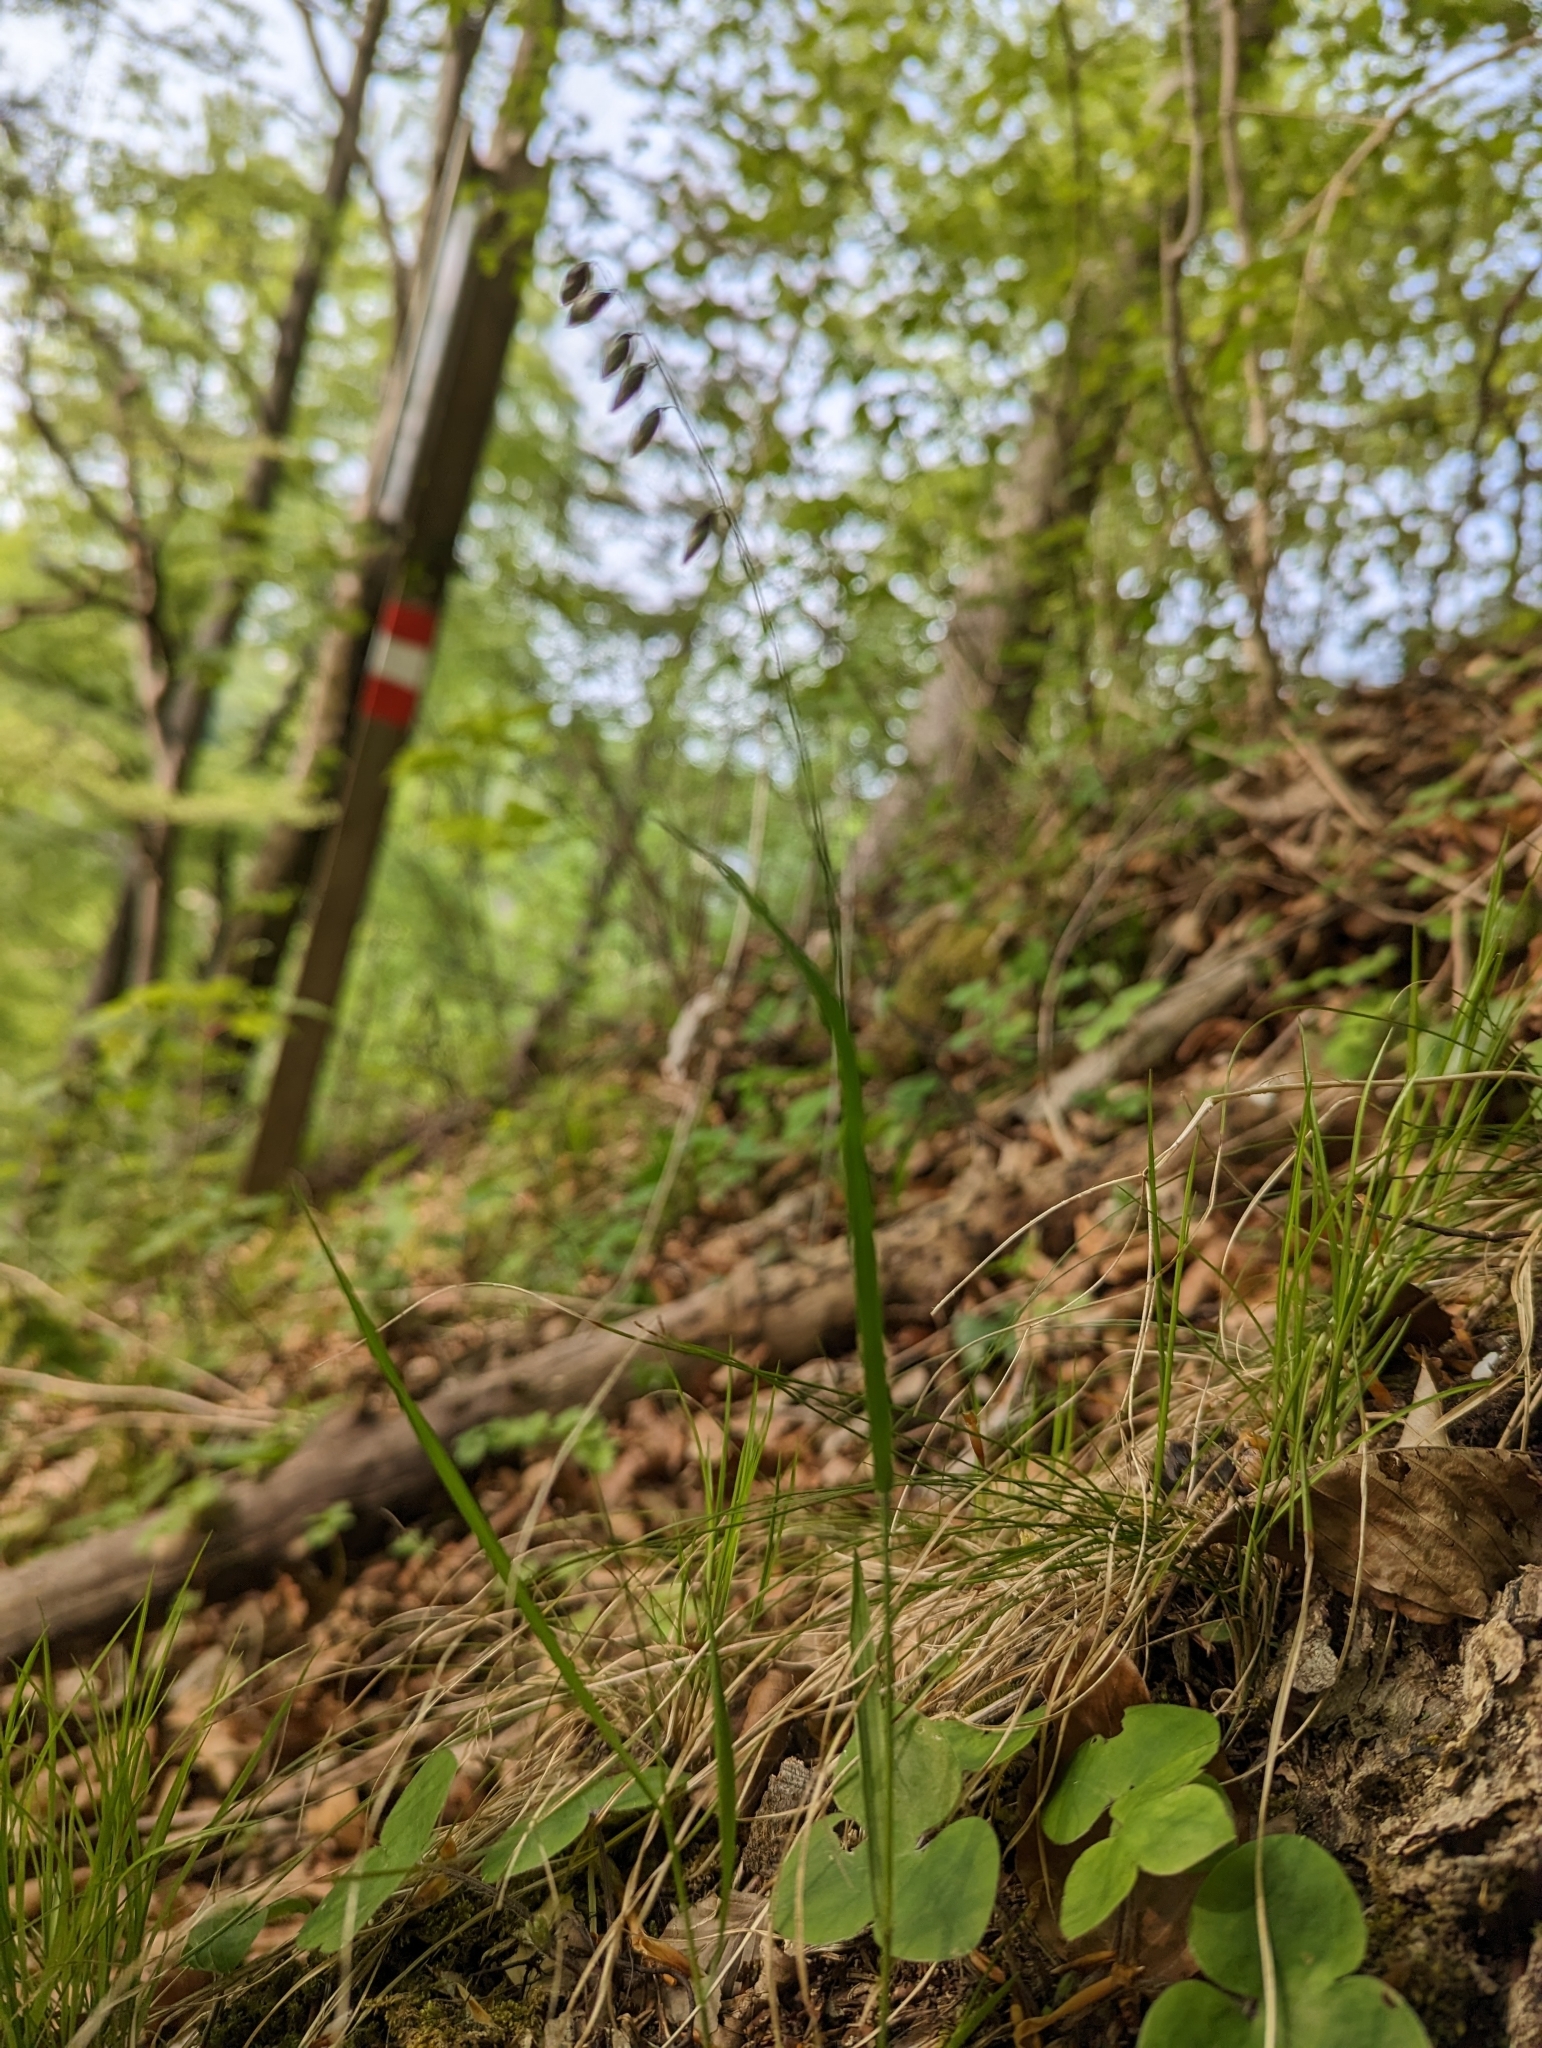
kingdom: Plantae
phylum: Tracheophyta
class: Liliopsida
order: Poales
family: Poaceae
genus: Melica
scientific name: Melica nutans
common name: Mountain melick
